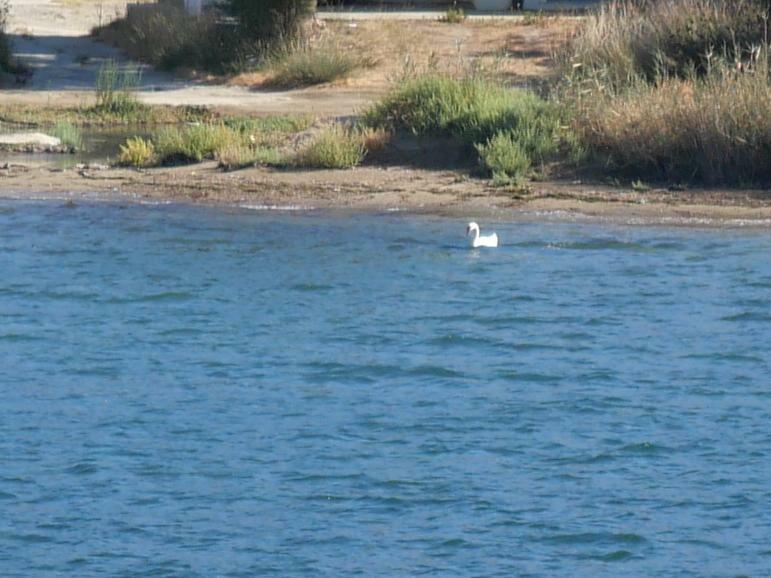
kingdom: Animalia
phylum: Chordata
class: Aves
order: Anseriformes
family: Anatidae
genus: Cygnus
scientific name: Cygnus olor
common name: Mute swan
